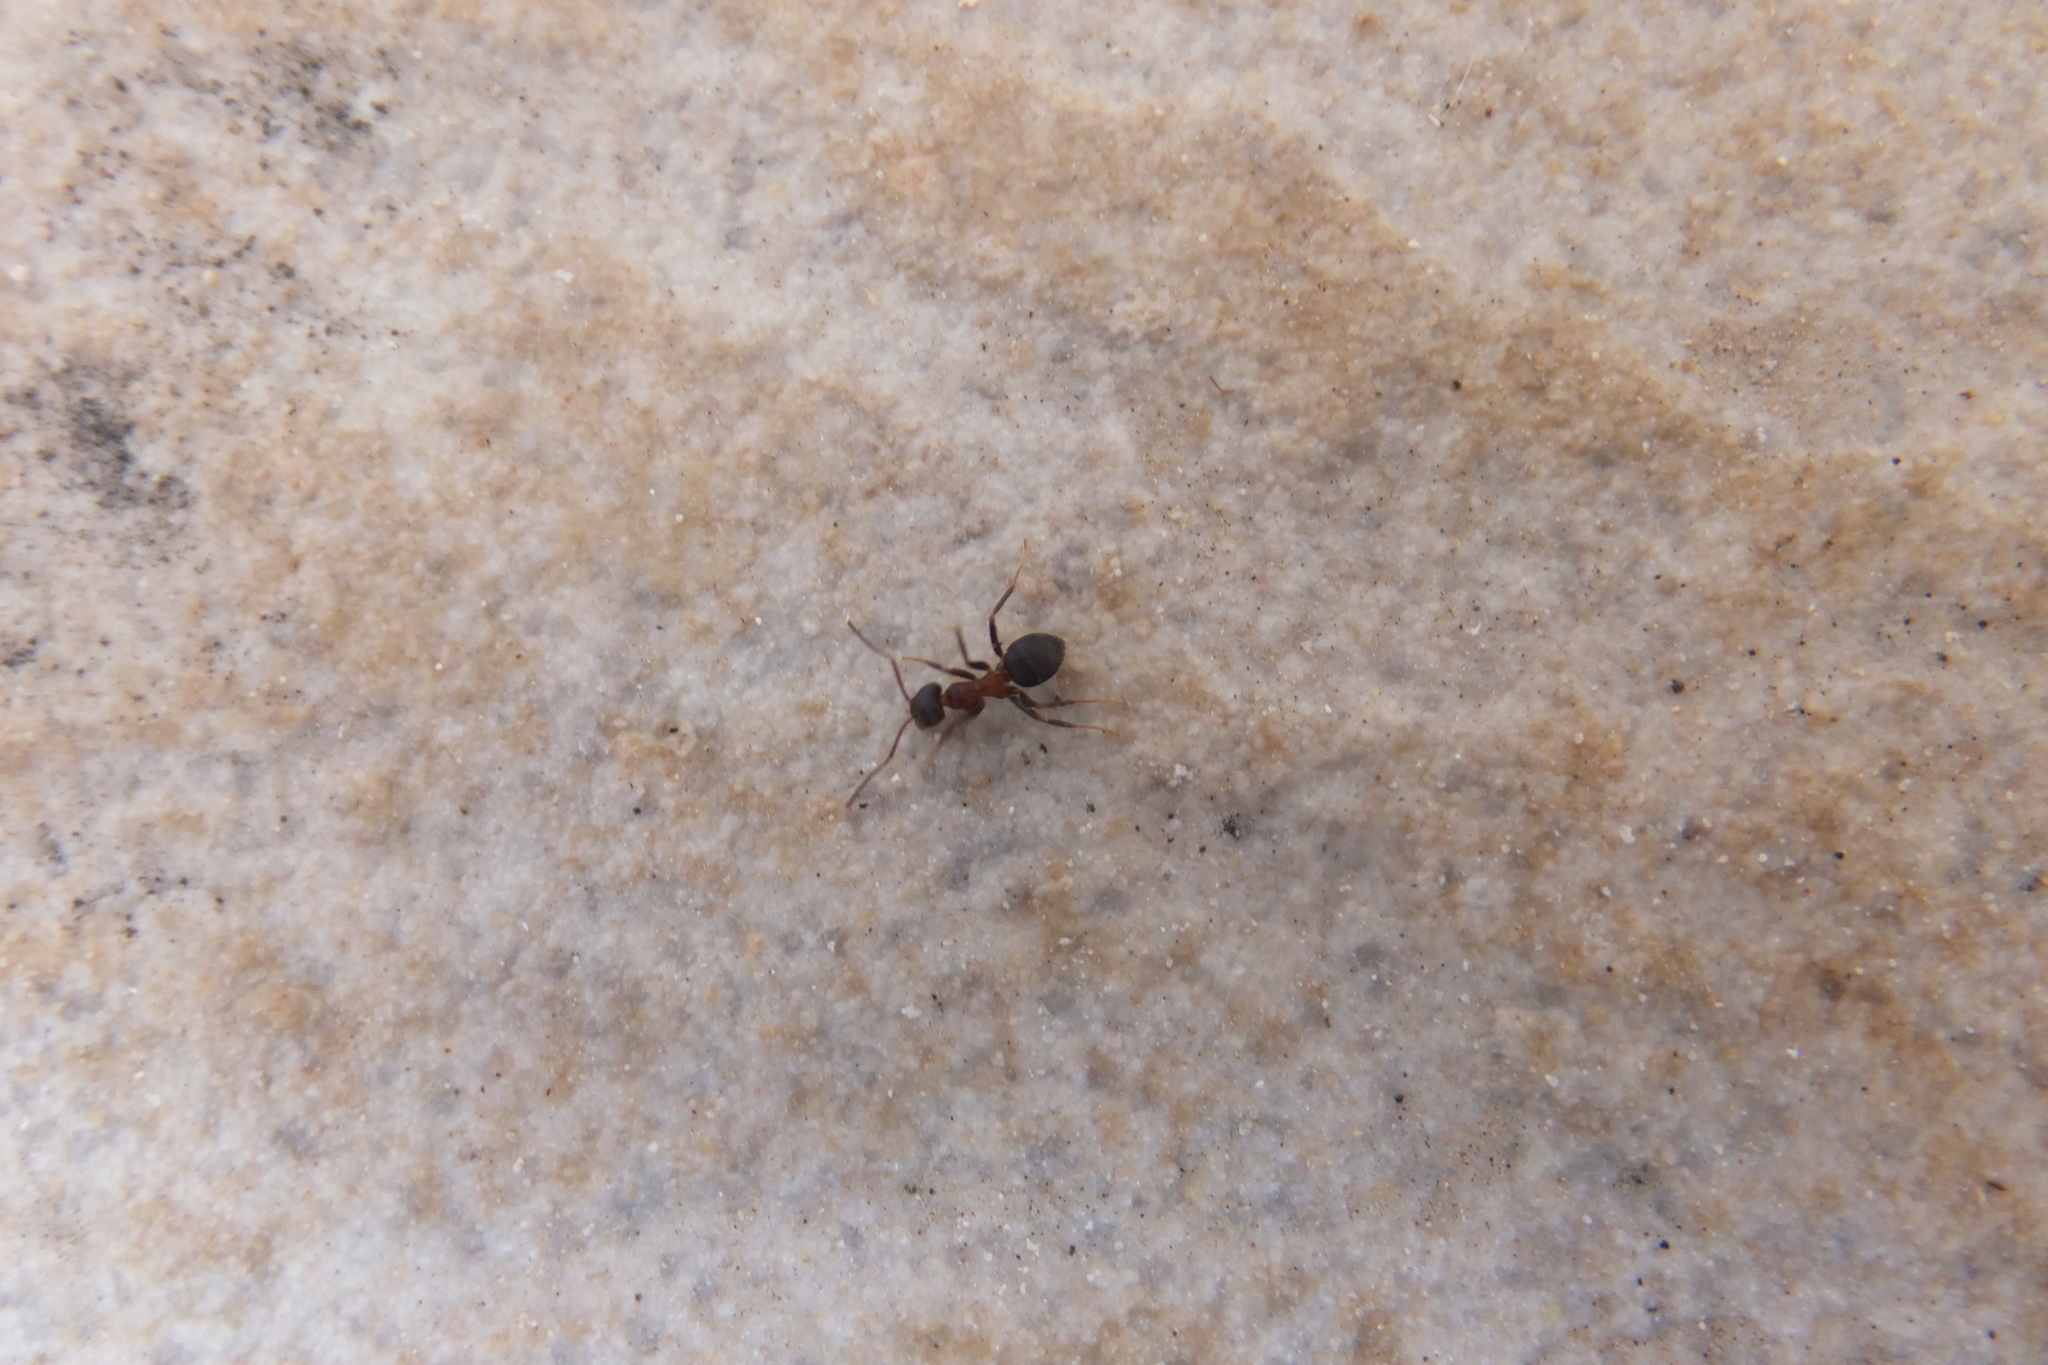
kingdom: Animalia
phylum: Arthropoda
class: Insecta
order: Hymenoptera
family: Formicidae
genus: Lasius
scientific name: Lasius emarginatus
